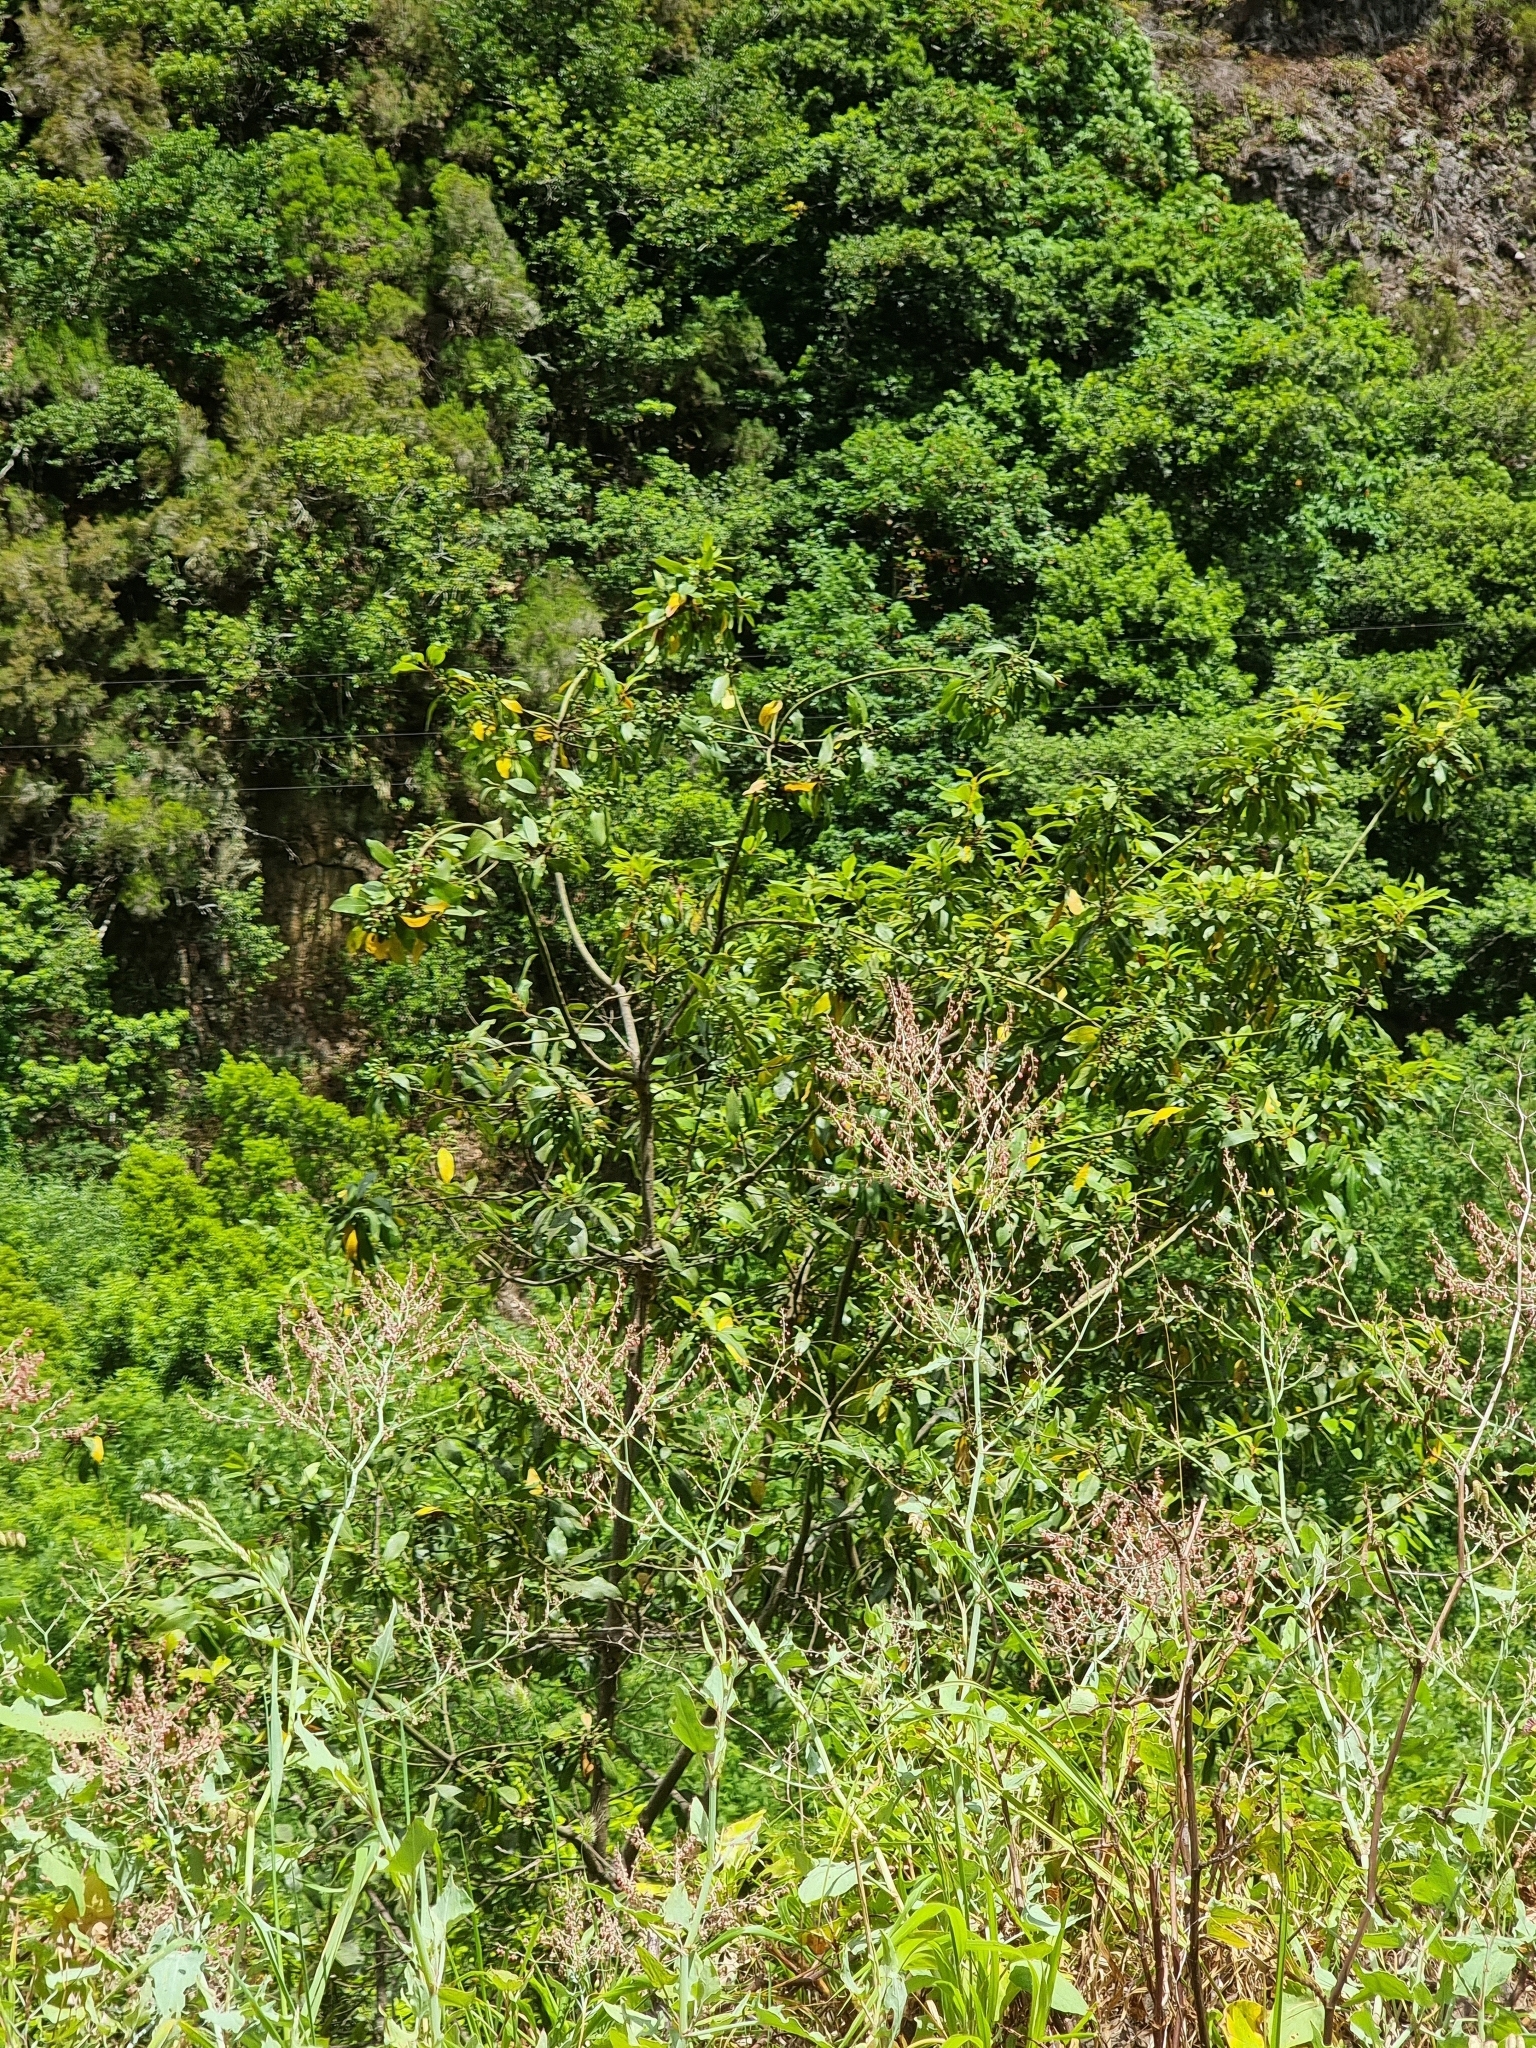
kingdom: Plantae
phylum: Tracheophyta
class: Magnoliopsida
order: Laurales
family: Lauraceae
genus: Laurus
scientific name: Laurus novocanariensis
